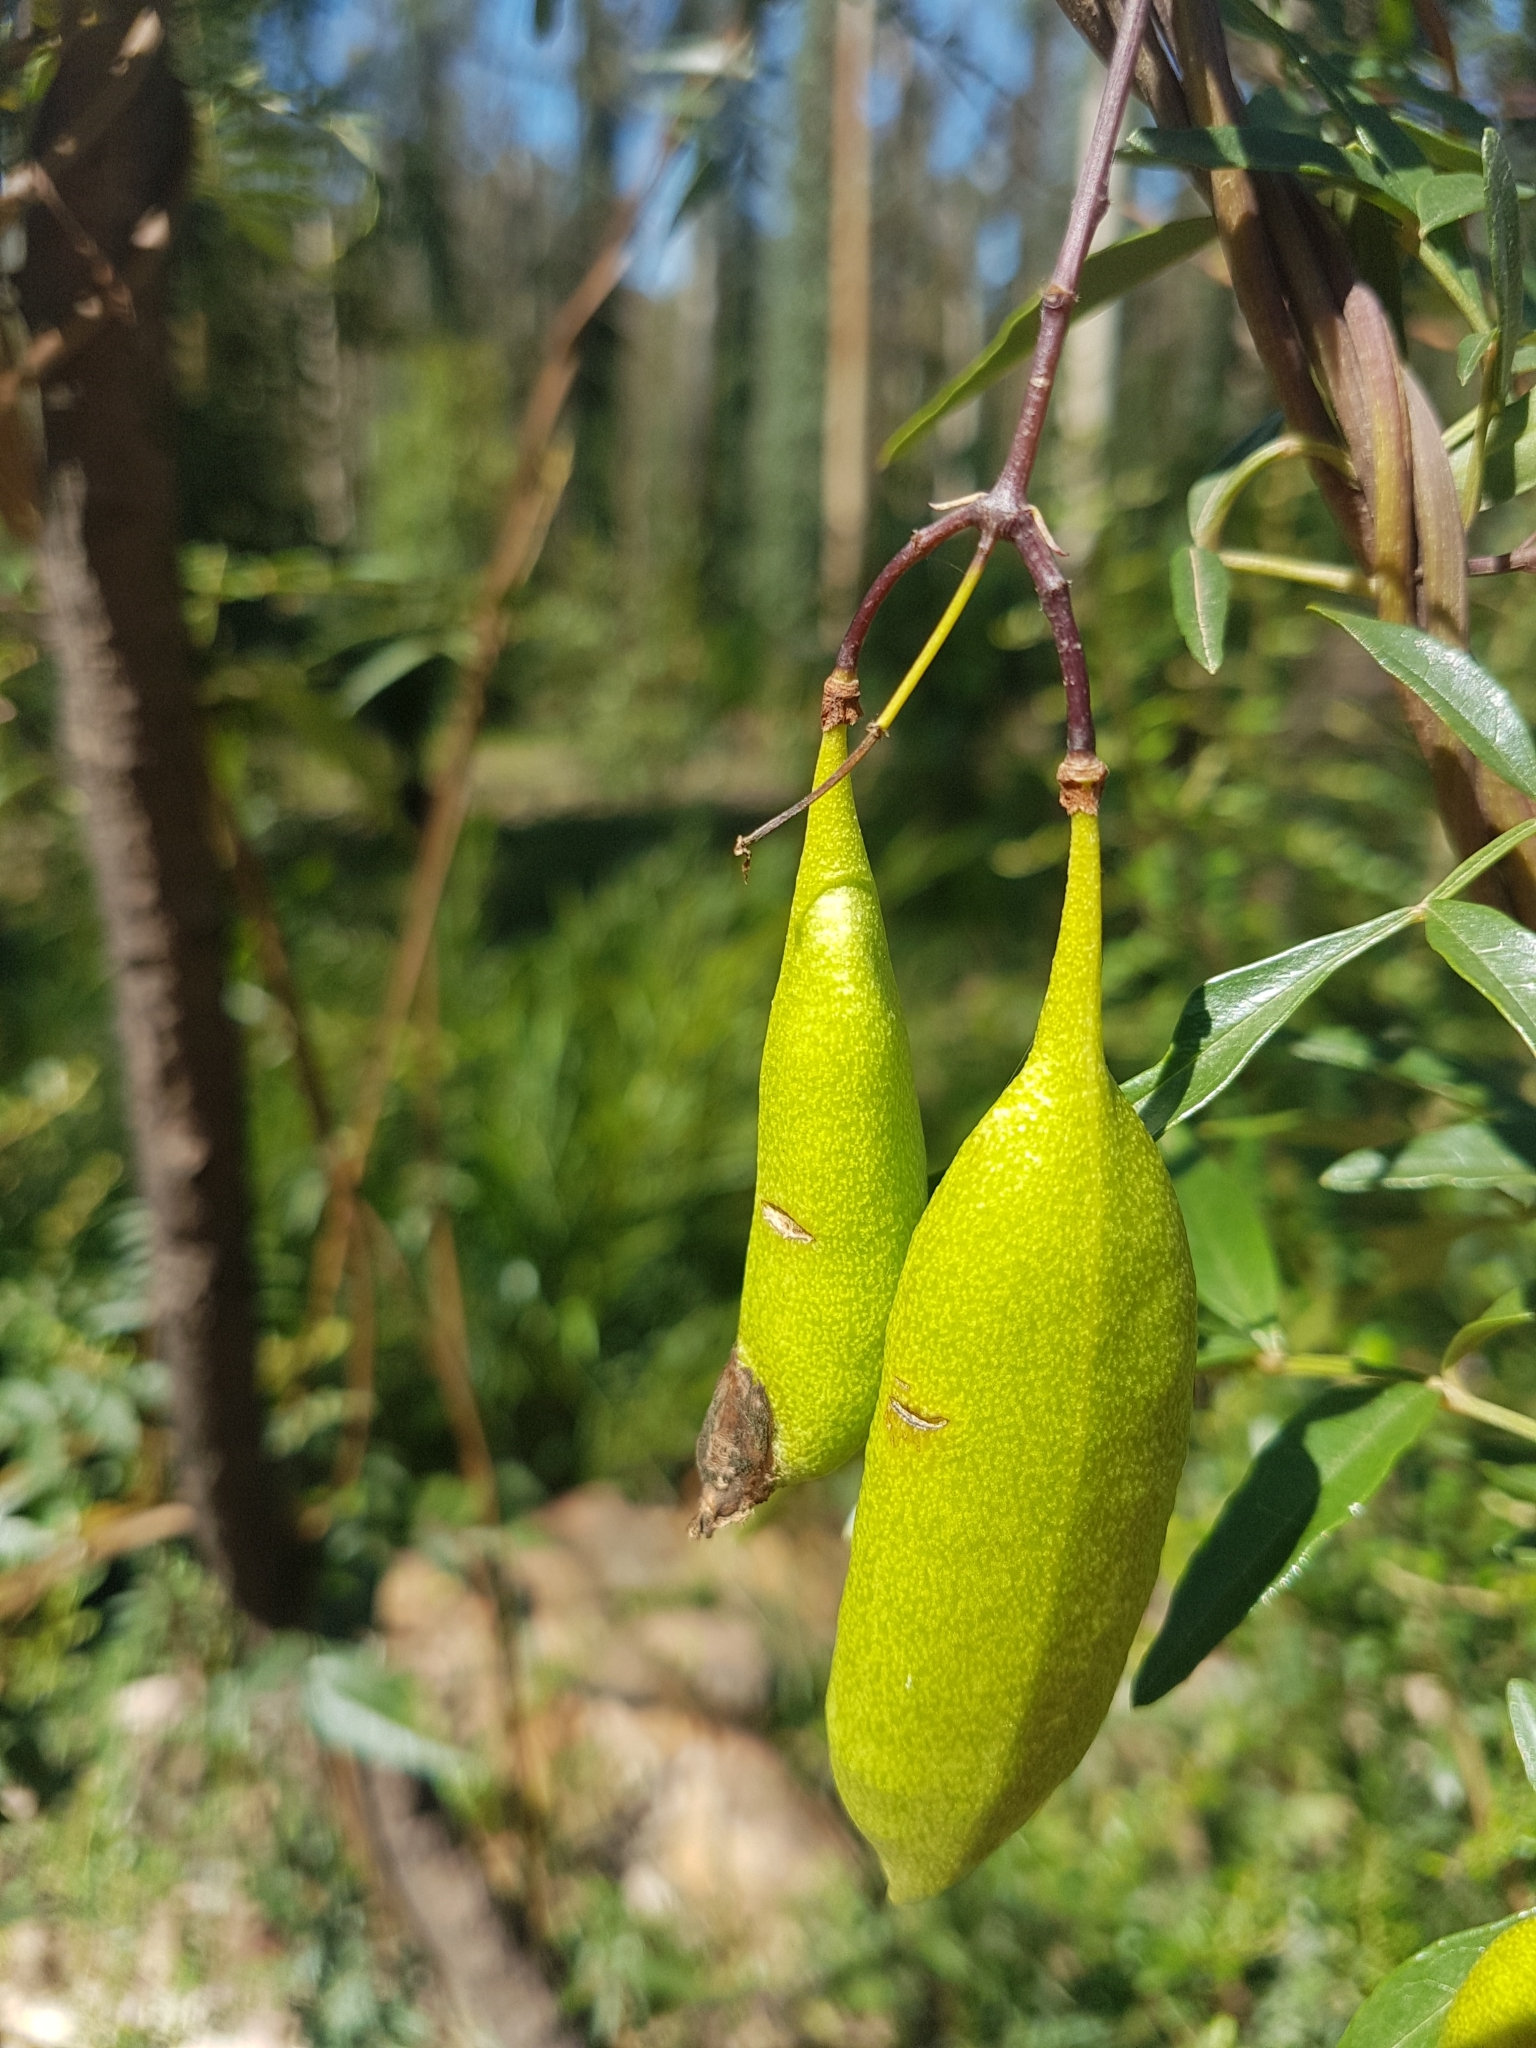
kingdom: Plantae
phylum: Tracheophyta
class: Magnoliopsida
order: Lamiales
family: Bignoniaceae
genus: Pandorea
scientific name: Pandorea pandorana
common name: Wonga-wonga-vine
